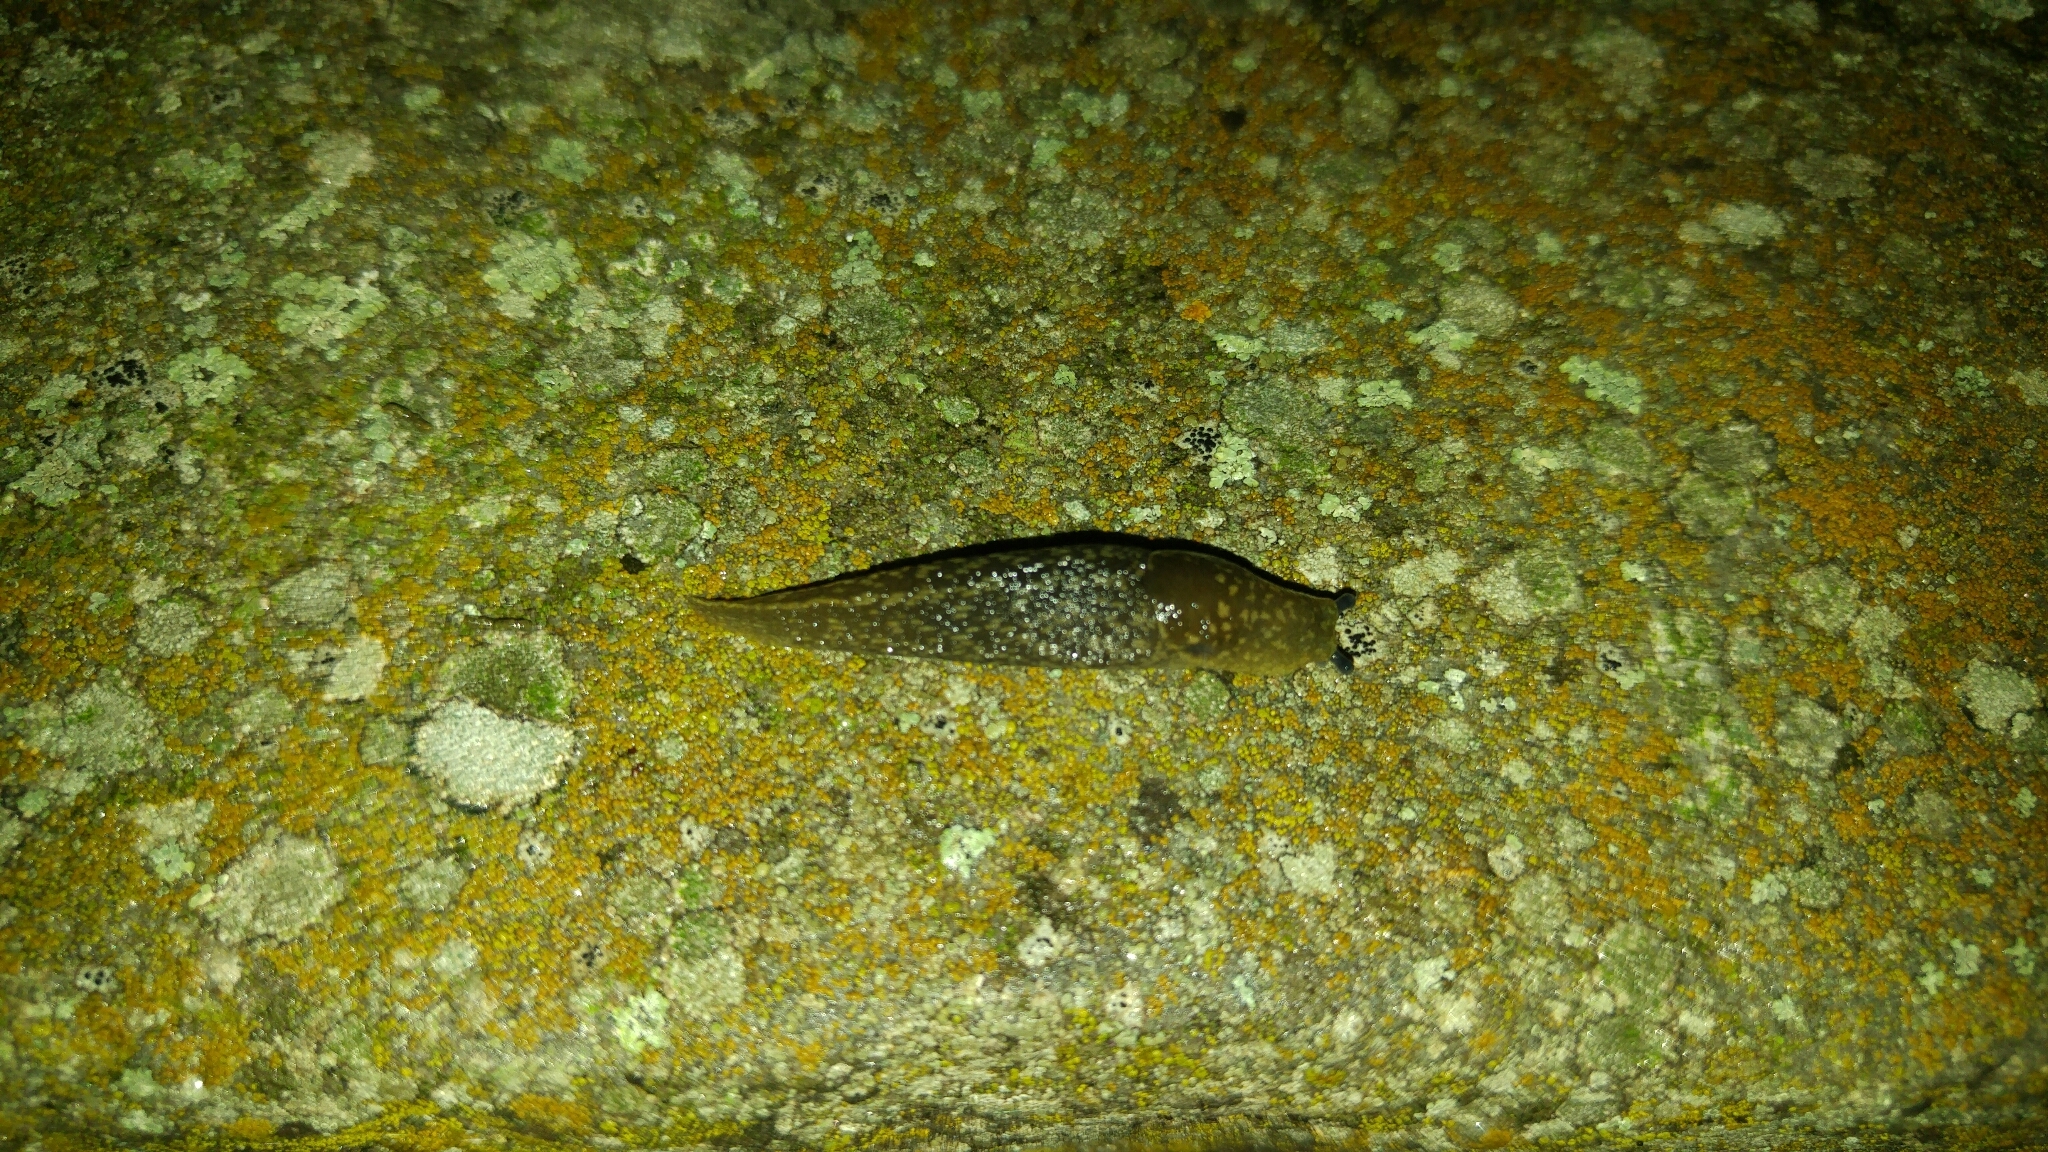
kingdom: Animalia
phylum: Mollusca
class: Gastropoda
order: Stylommatophora
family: Limacidae
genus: Limacus
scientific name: Limacus flavus
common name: Yellow gardenslug
